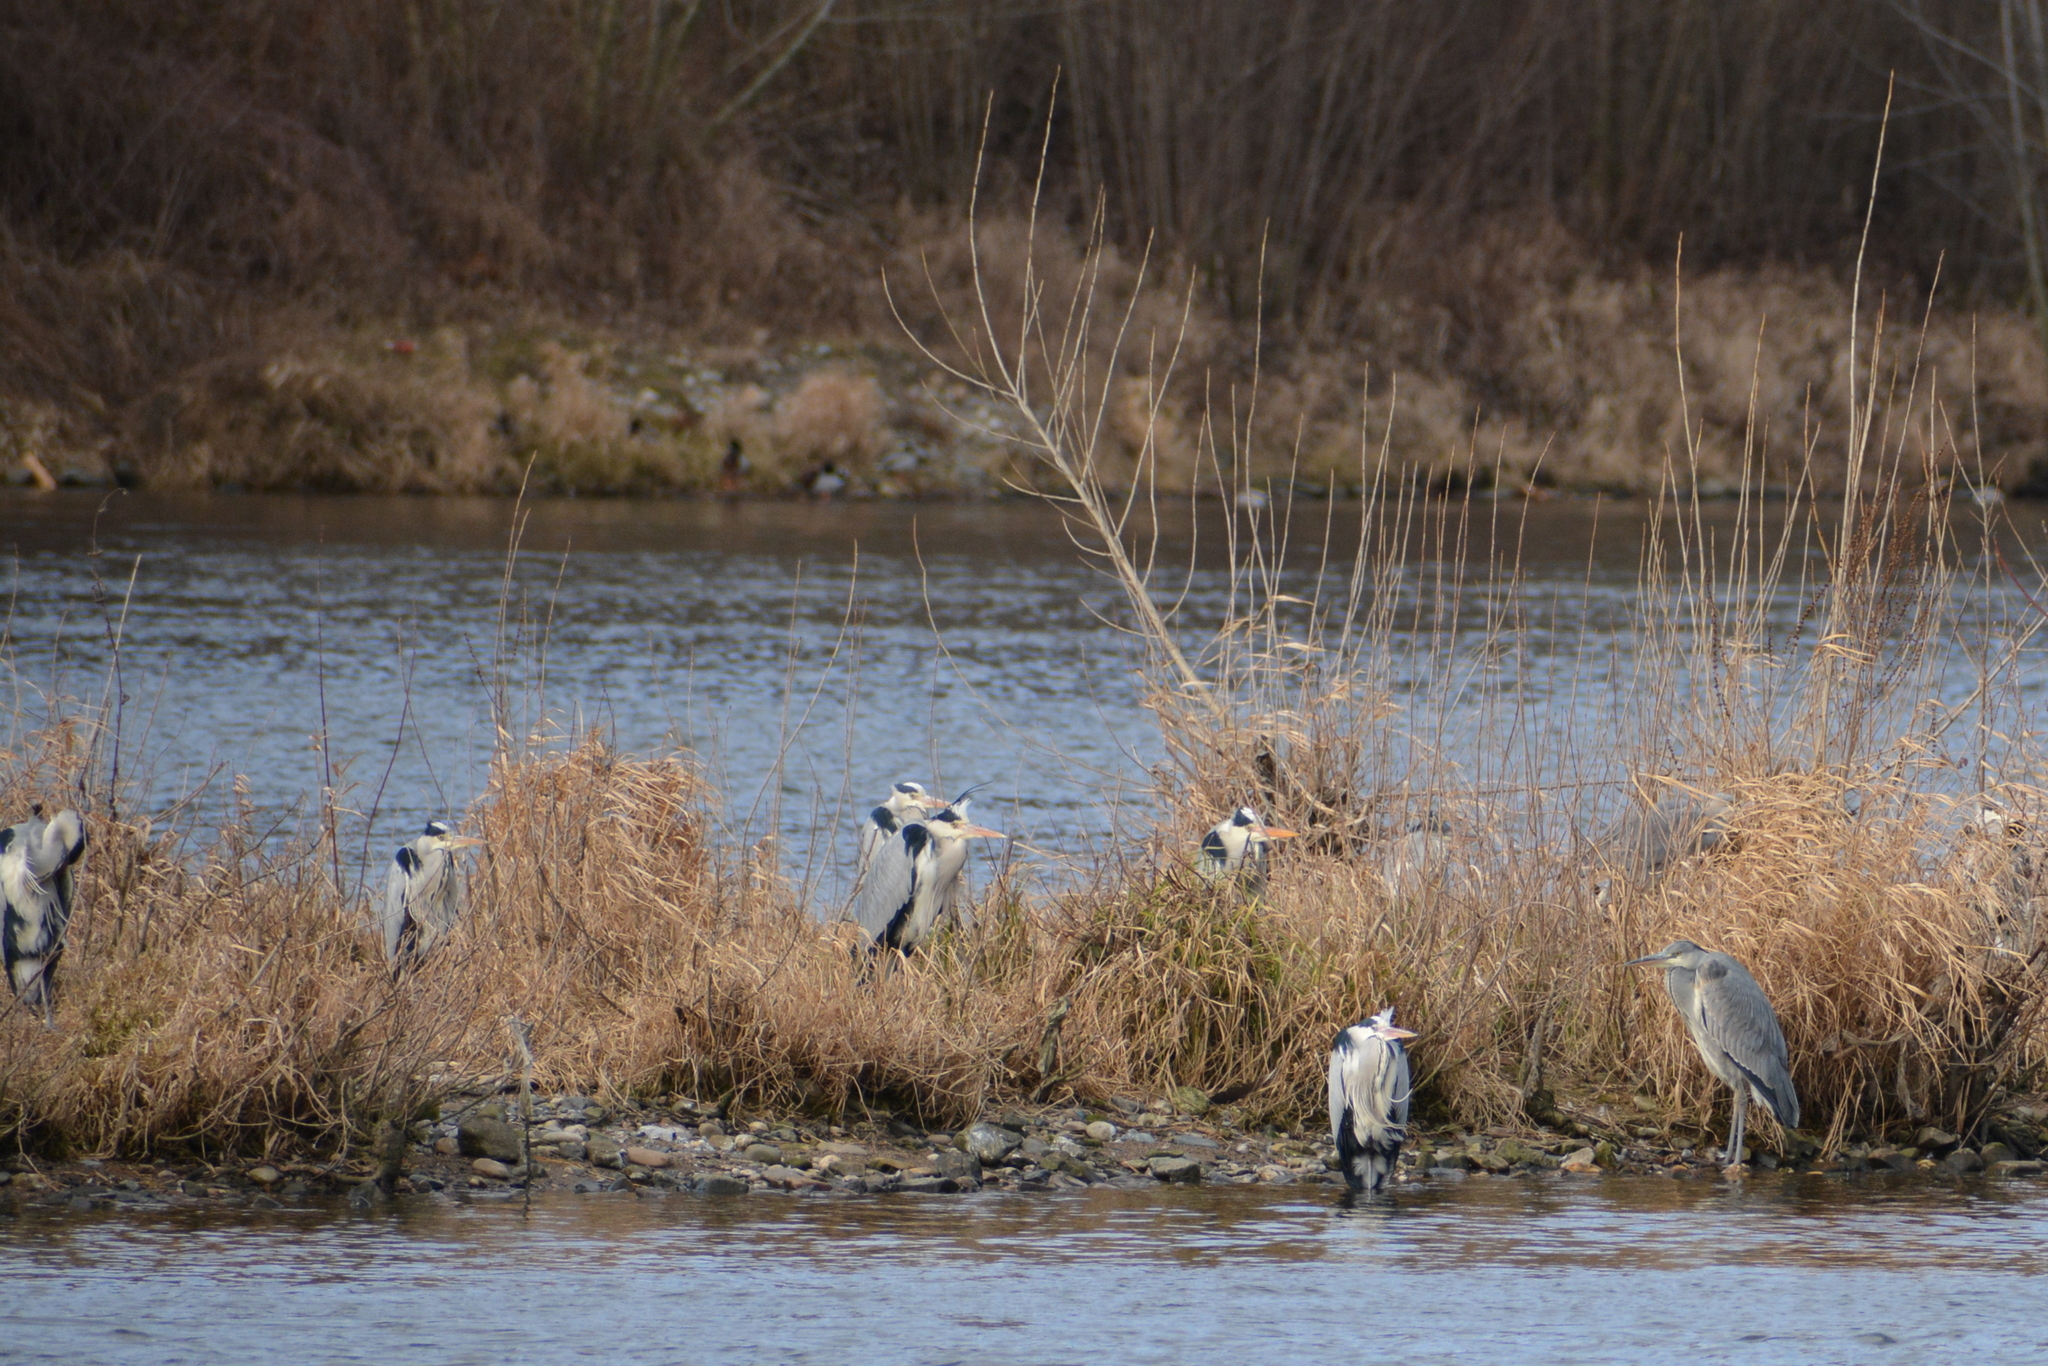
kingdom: Animalia
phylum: Chordata
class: Aves
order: Pelecaniformes
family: Ardeidae
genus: Ardea
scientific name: Ardea cinerea
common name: Grey heron
